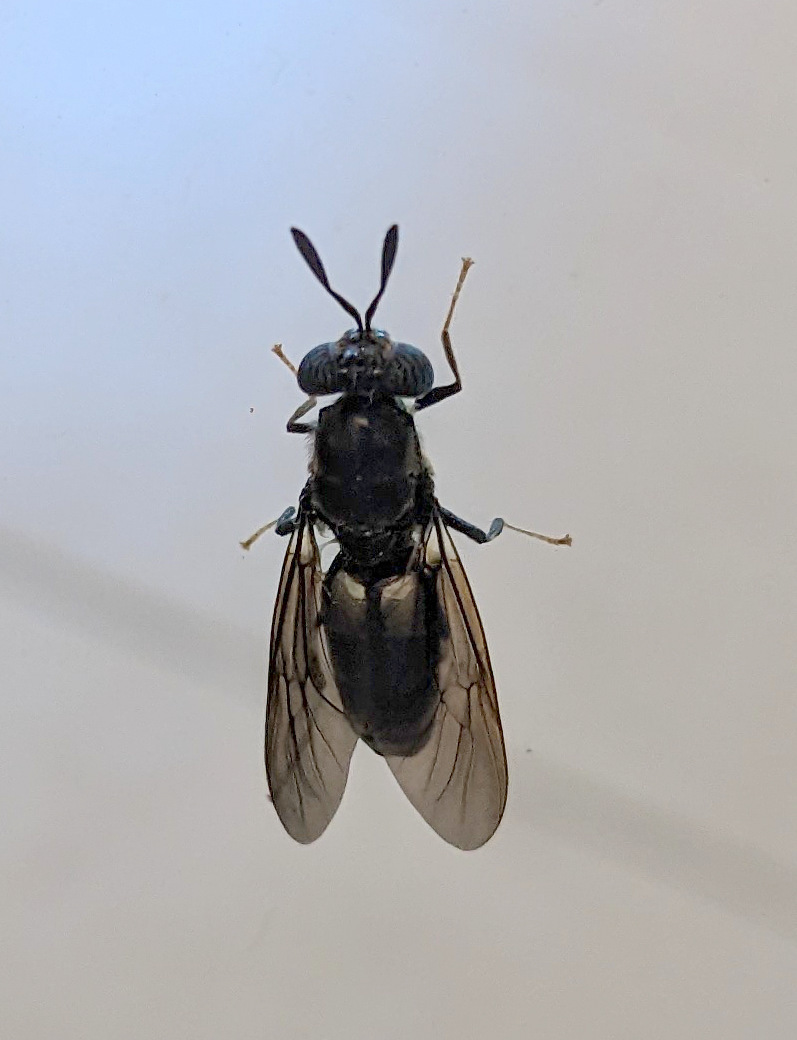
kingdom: Animalia
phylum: Arthropoda
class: Insecta
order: Diptera
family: Stratiomyidae
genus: Hermetia
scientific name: Hermetia illucens
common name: Black soldier fly
